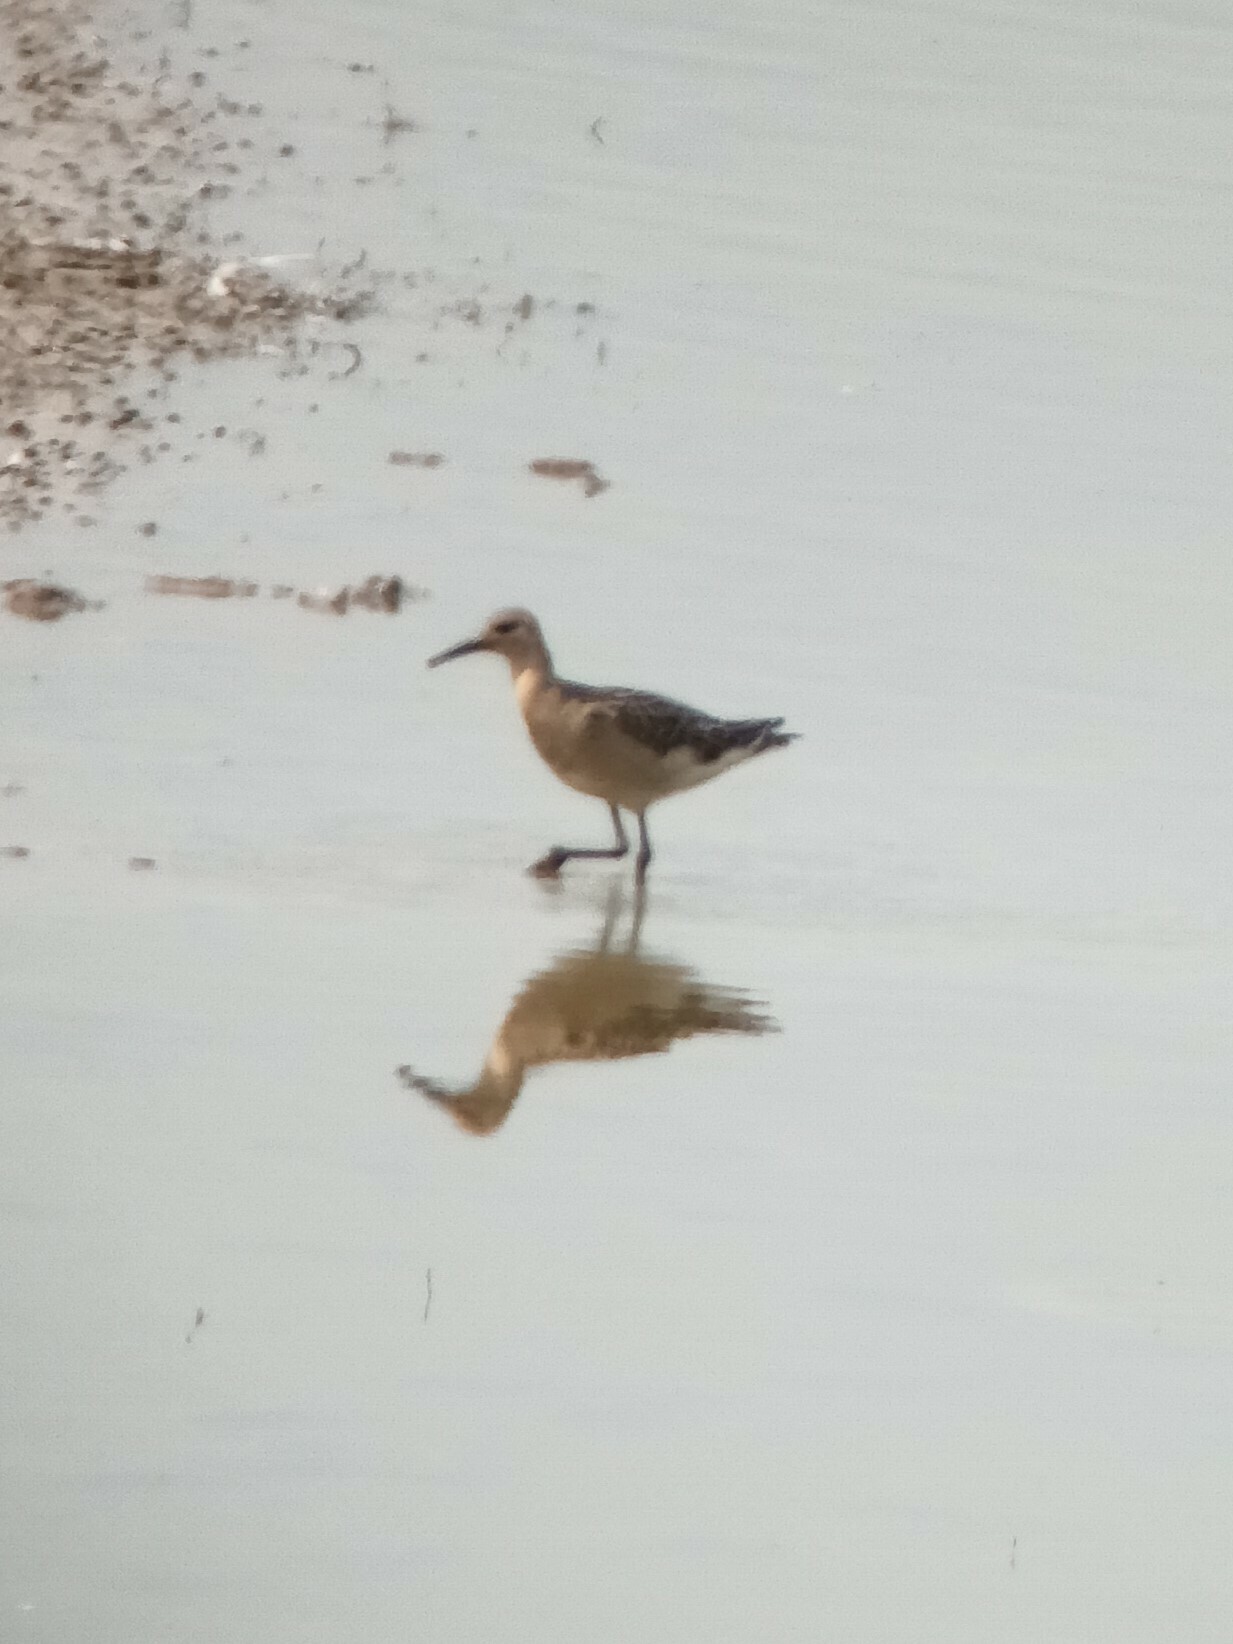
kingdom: Animalia
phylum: Chordata
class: Aves
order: Charadriiformes
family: Scolopacidae
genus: Calidris
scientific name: Calidris pugnax
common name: Ruff
